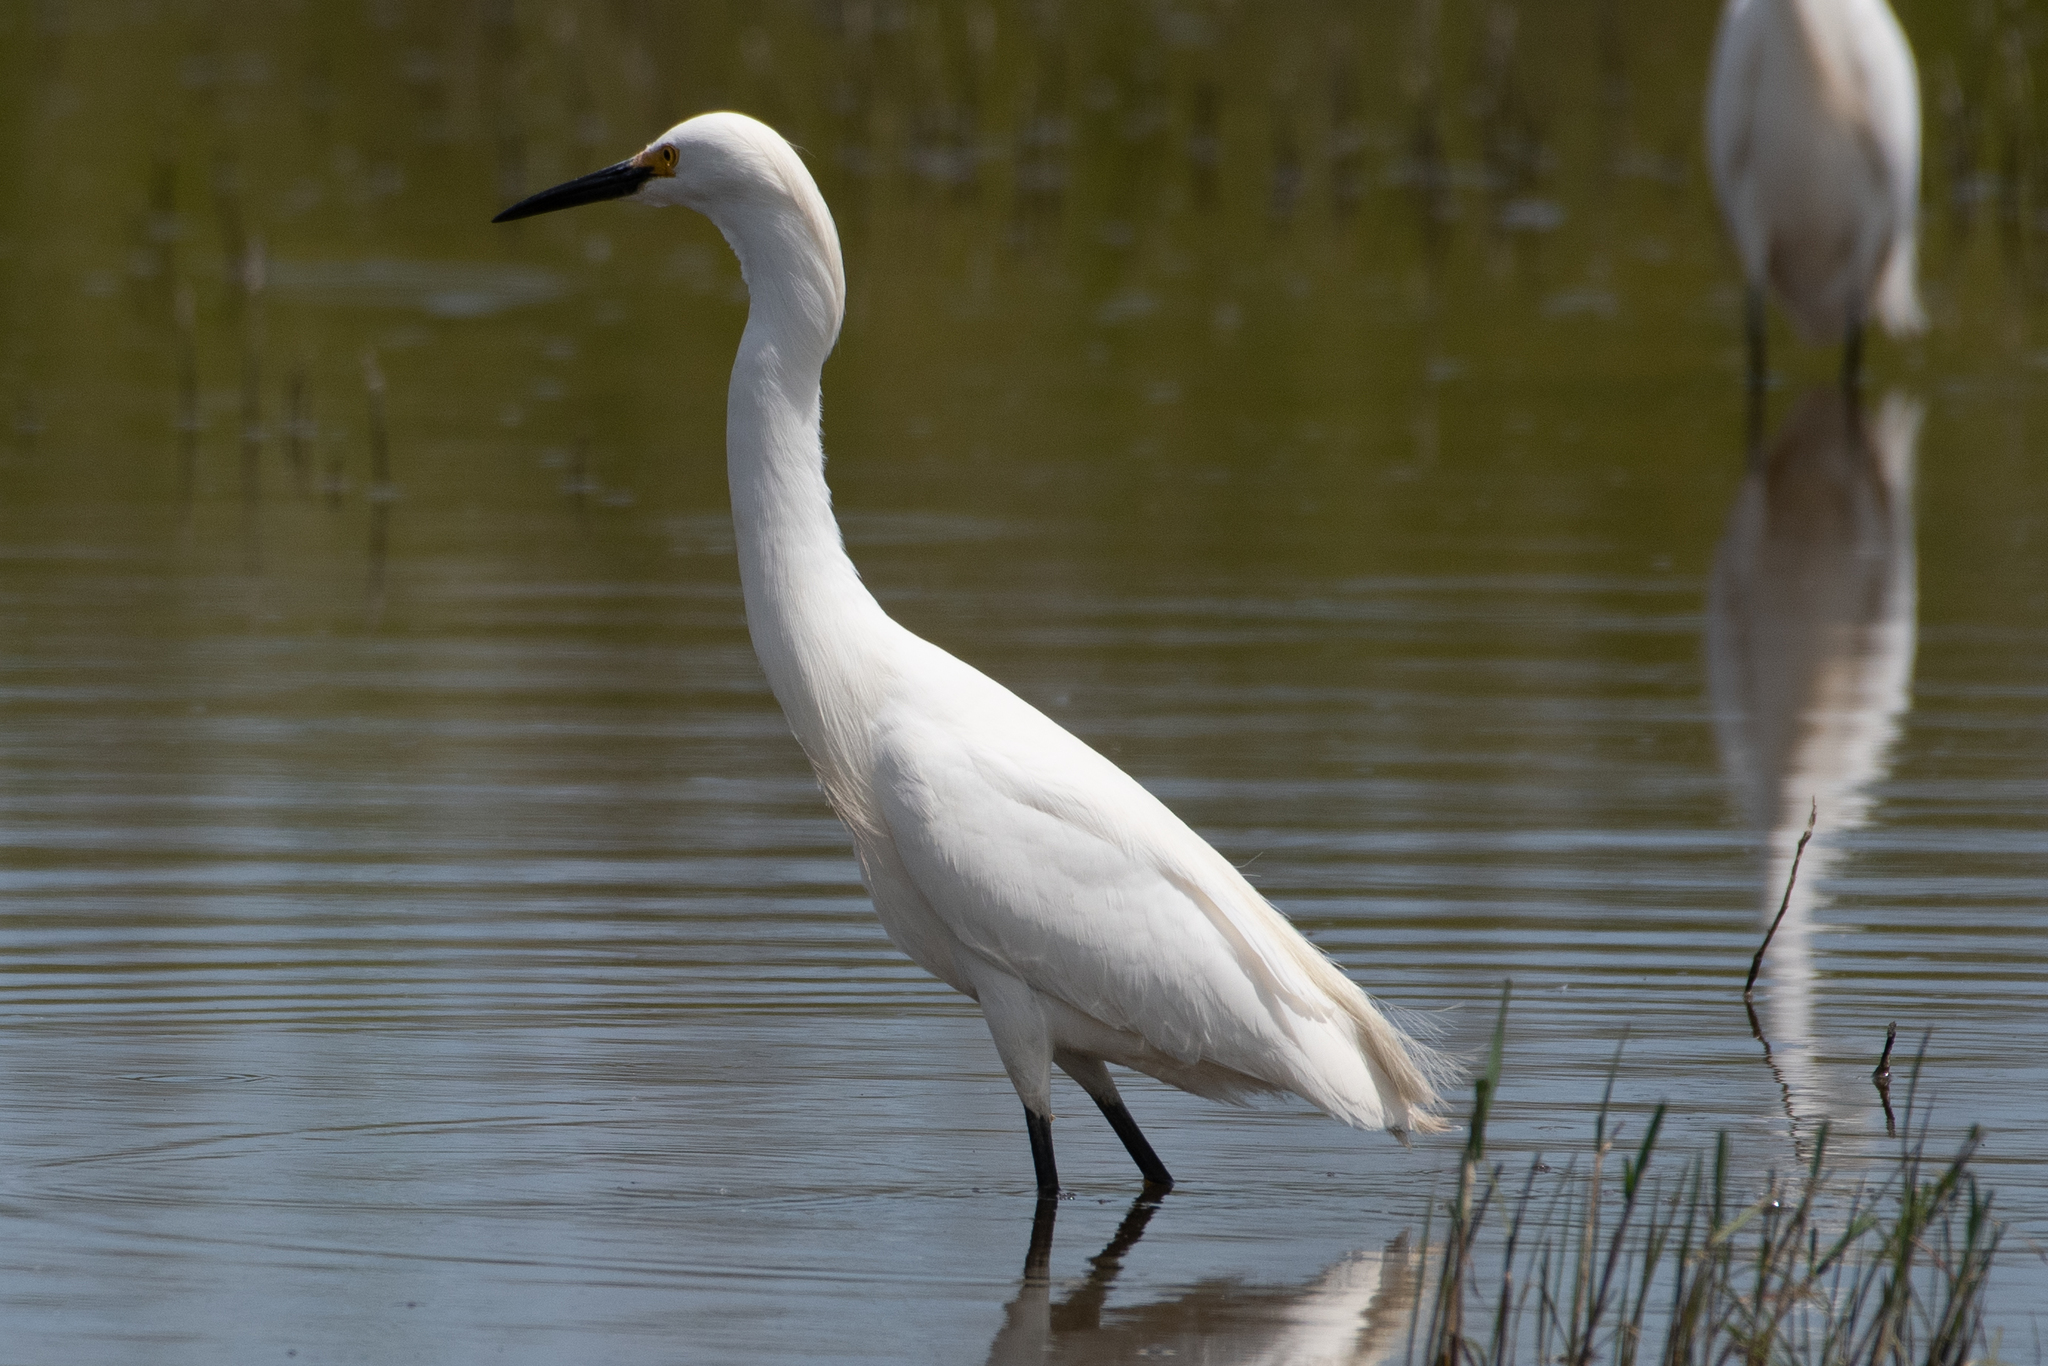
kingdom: Animalia
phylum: Chordata
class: Aves
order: Pelecaniformes
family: Ardeidae
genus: Egretta
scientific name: Egretta thula
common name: Snowy egret
